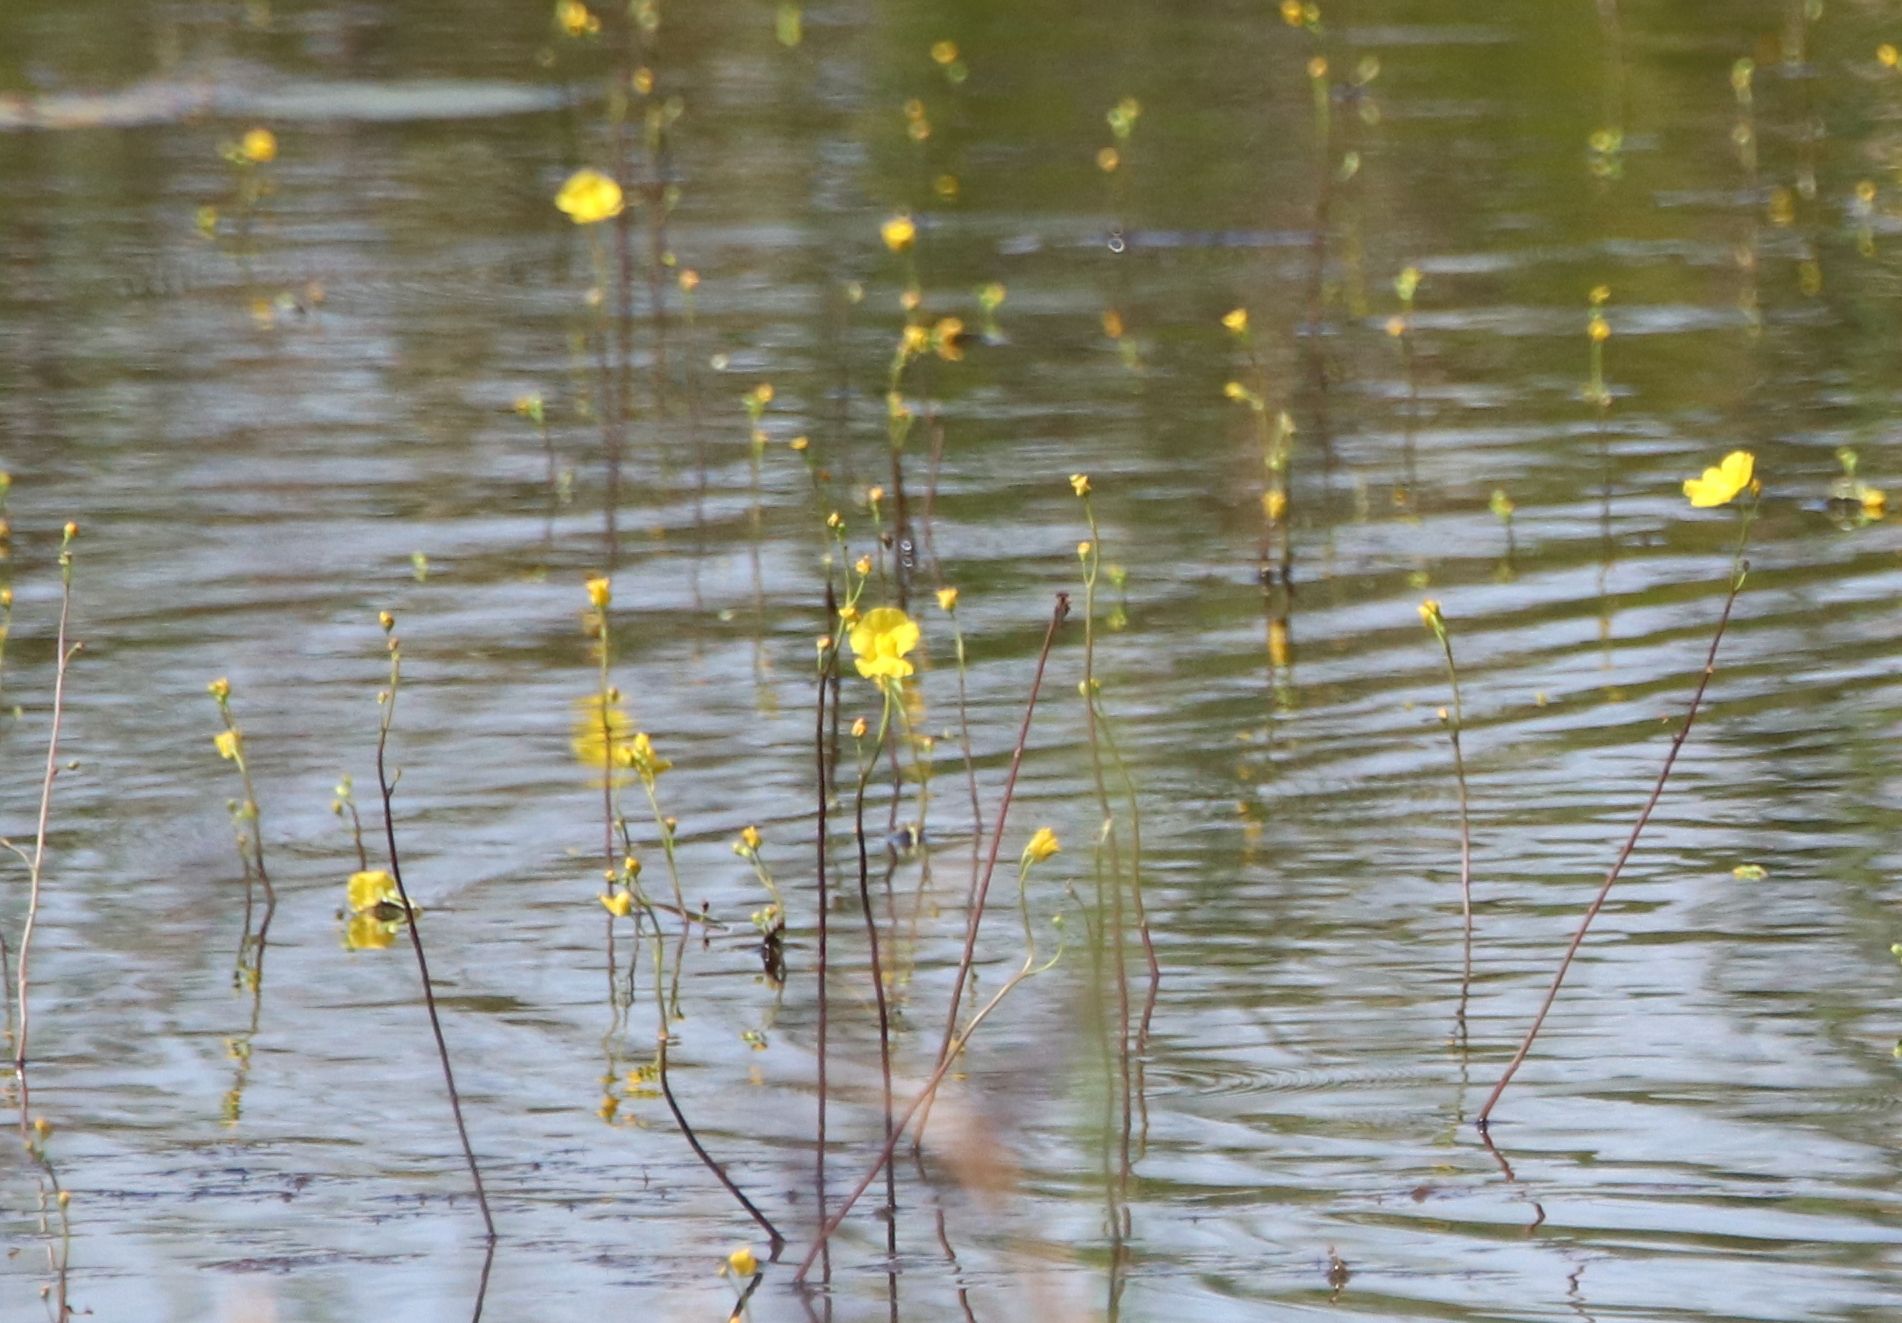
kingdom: Plantae
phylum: Tracheophyta
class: Magnoliopsida
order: Lamiales
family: Lentibulariaceae
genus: Utricularia
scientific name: Utricularia floridana
